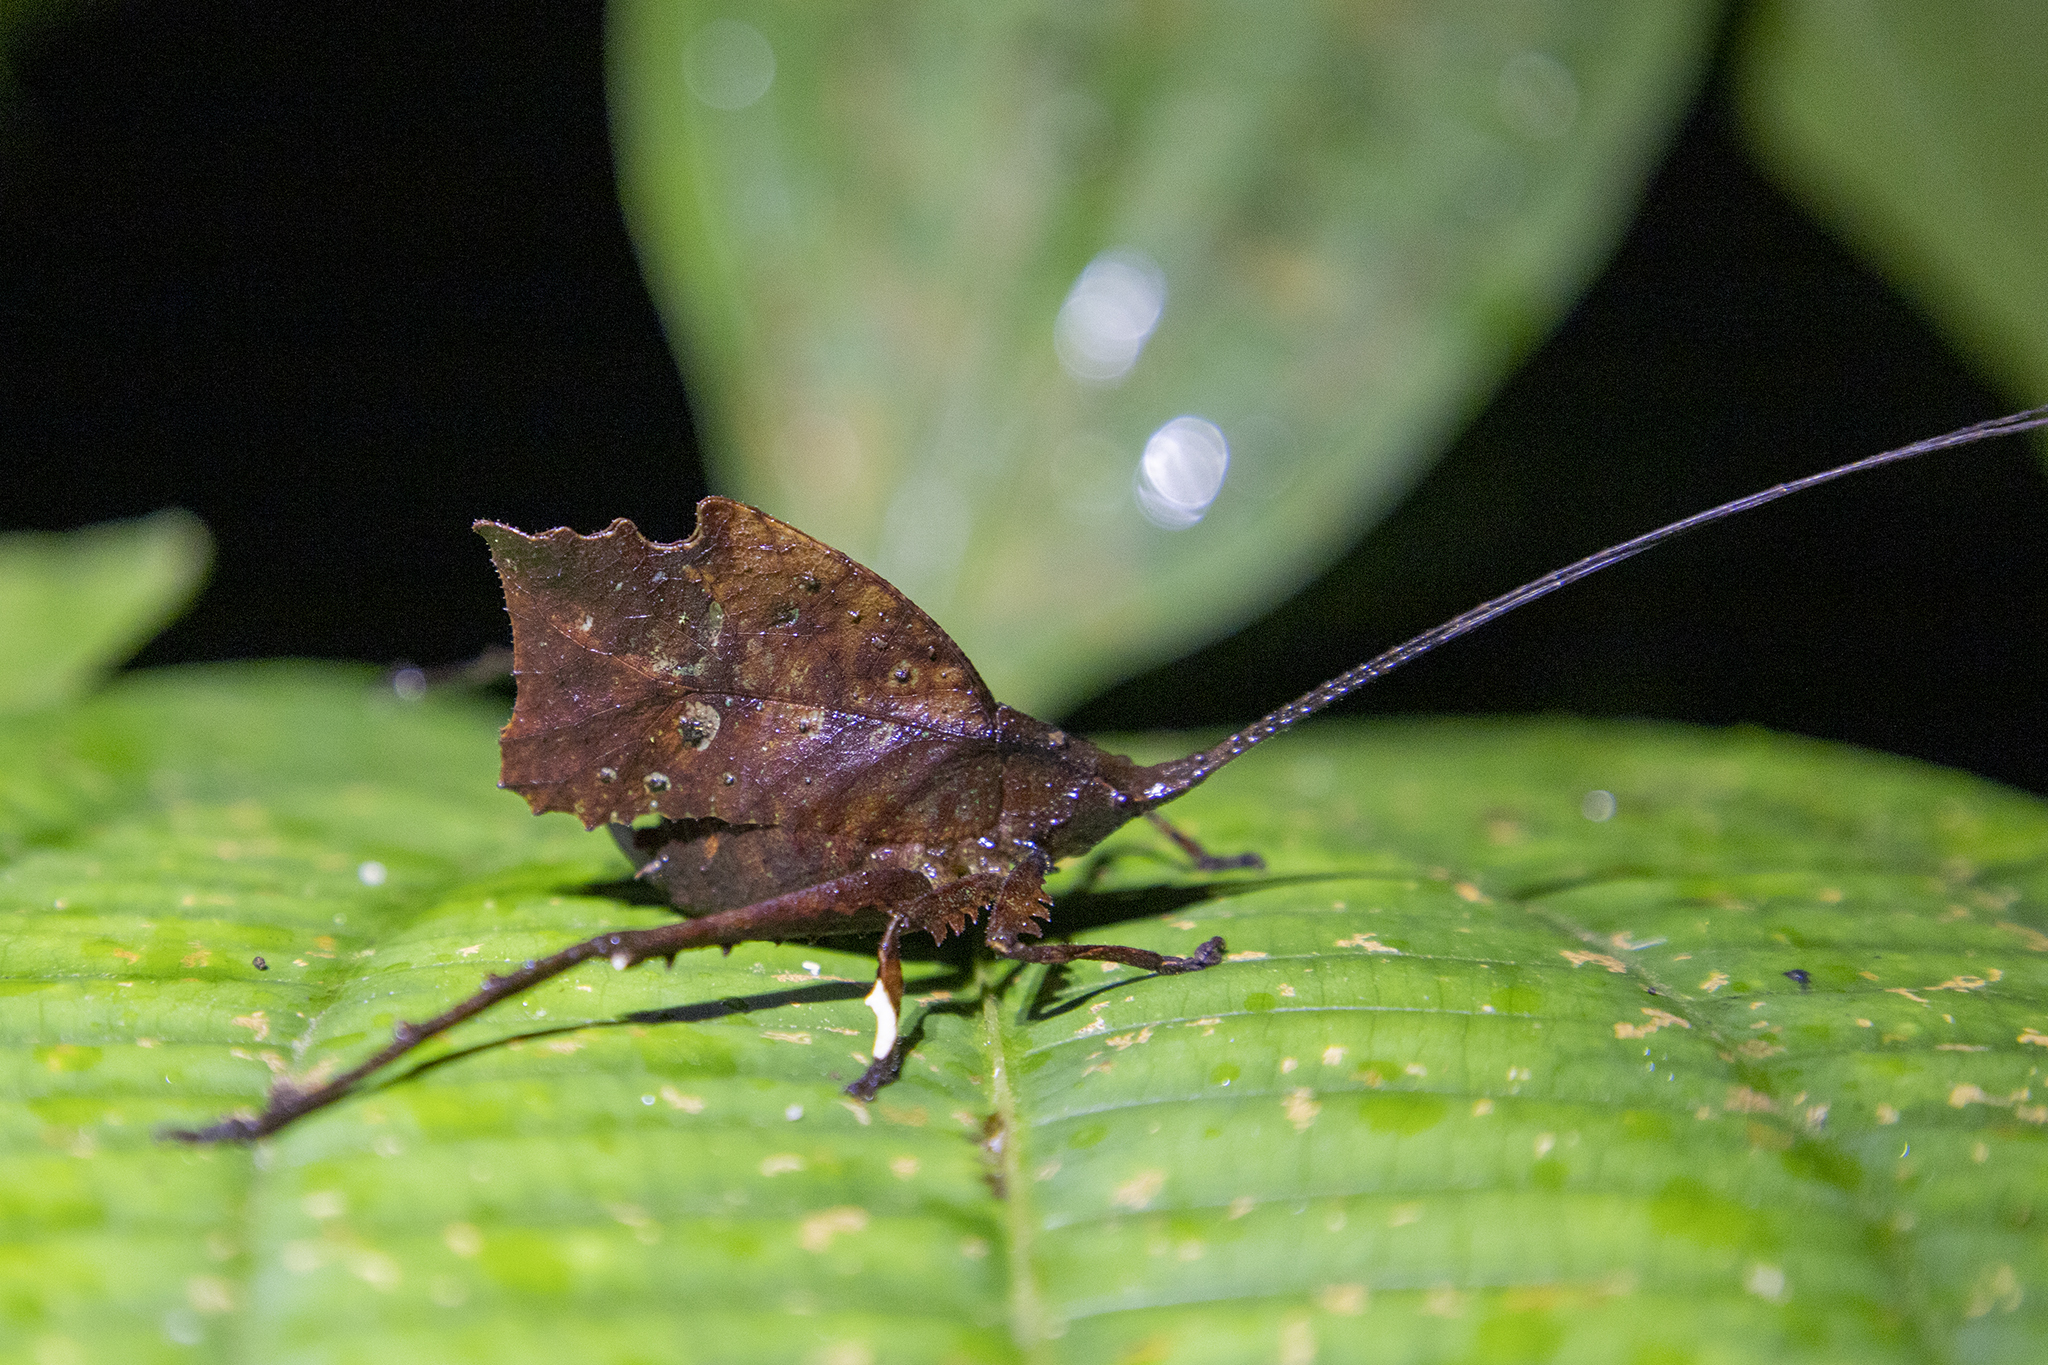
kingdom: Animalia
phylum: Arthropoda
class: Insecta
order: Orthoptera
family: Tettigoniidae
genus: Typophyllum
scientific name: Typophyllum morrisi
